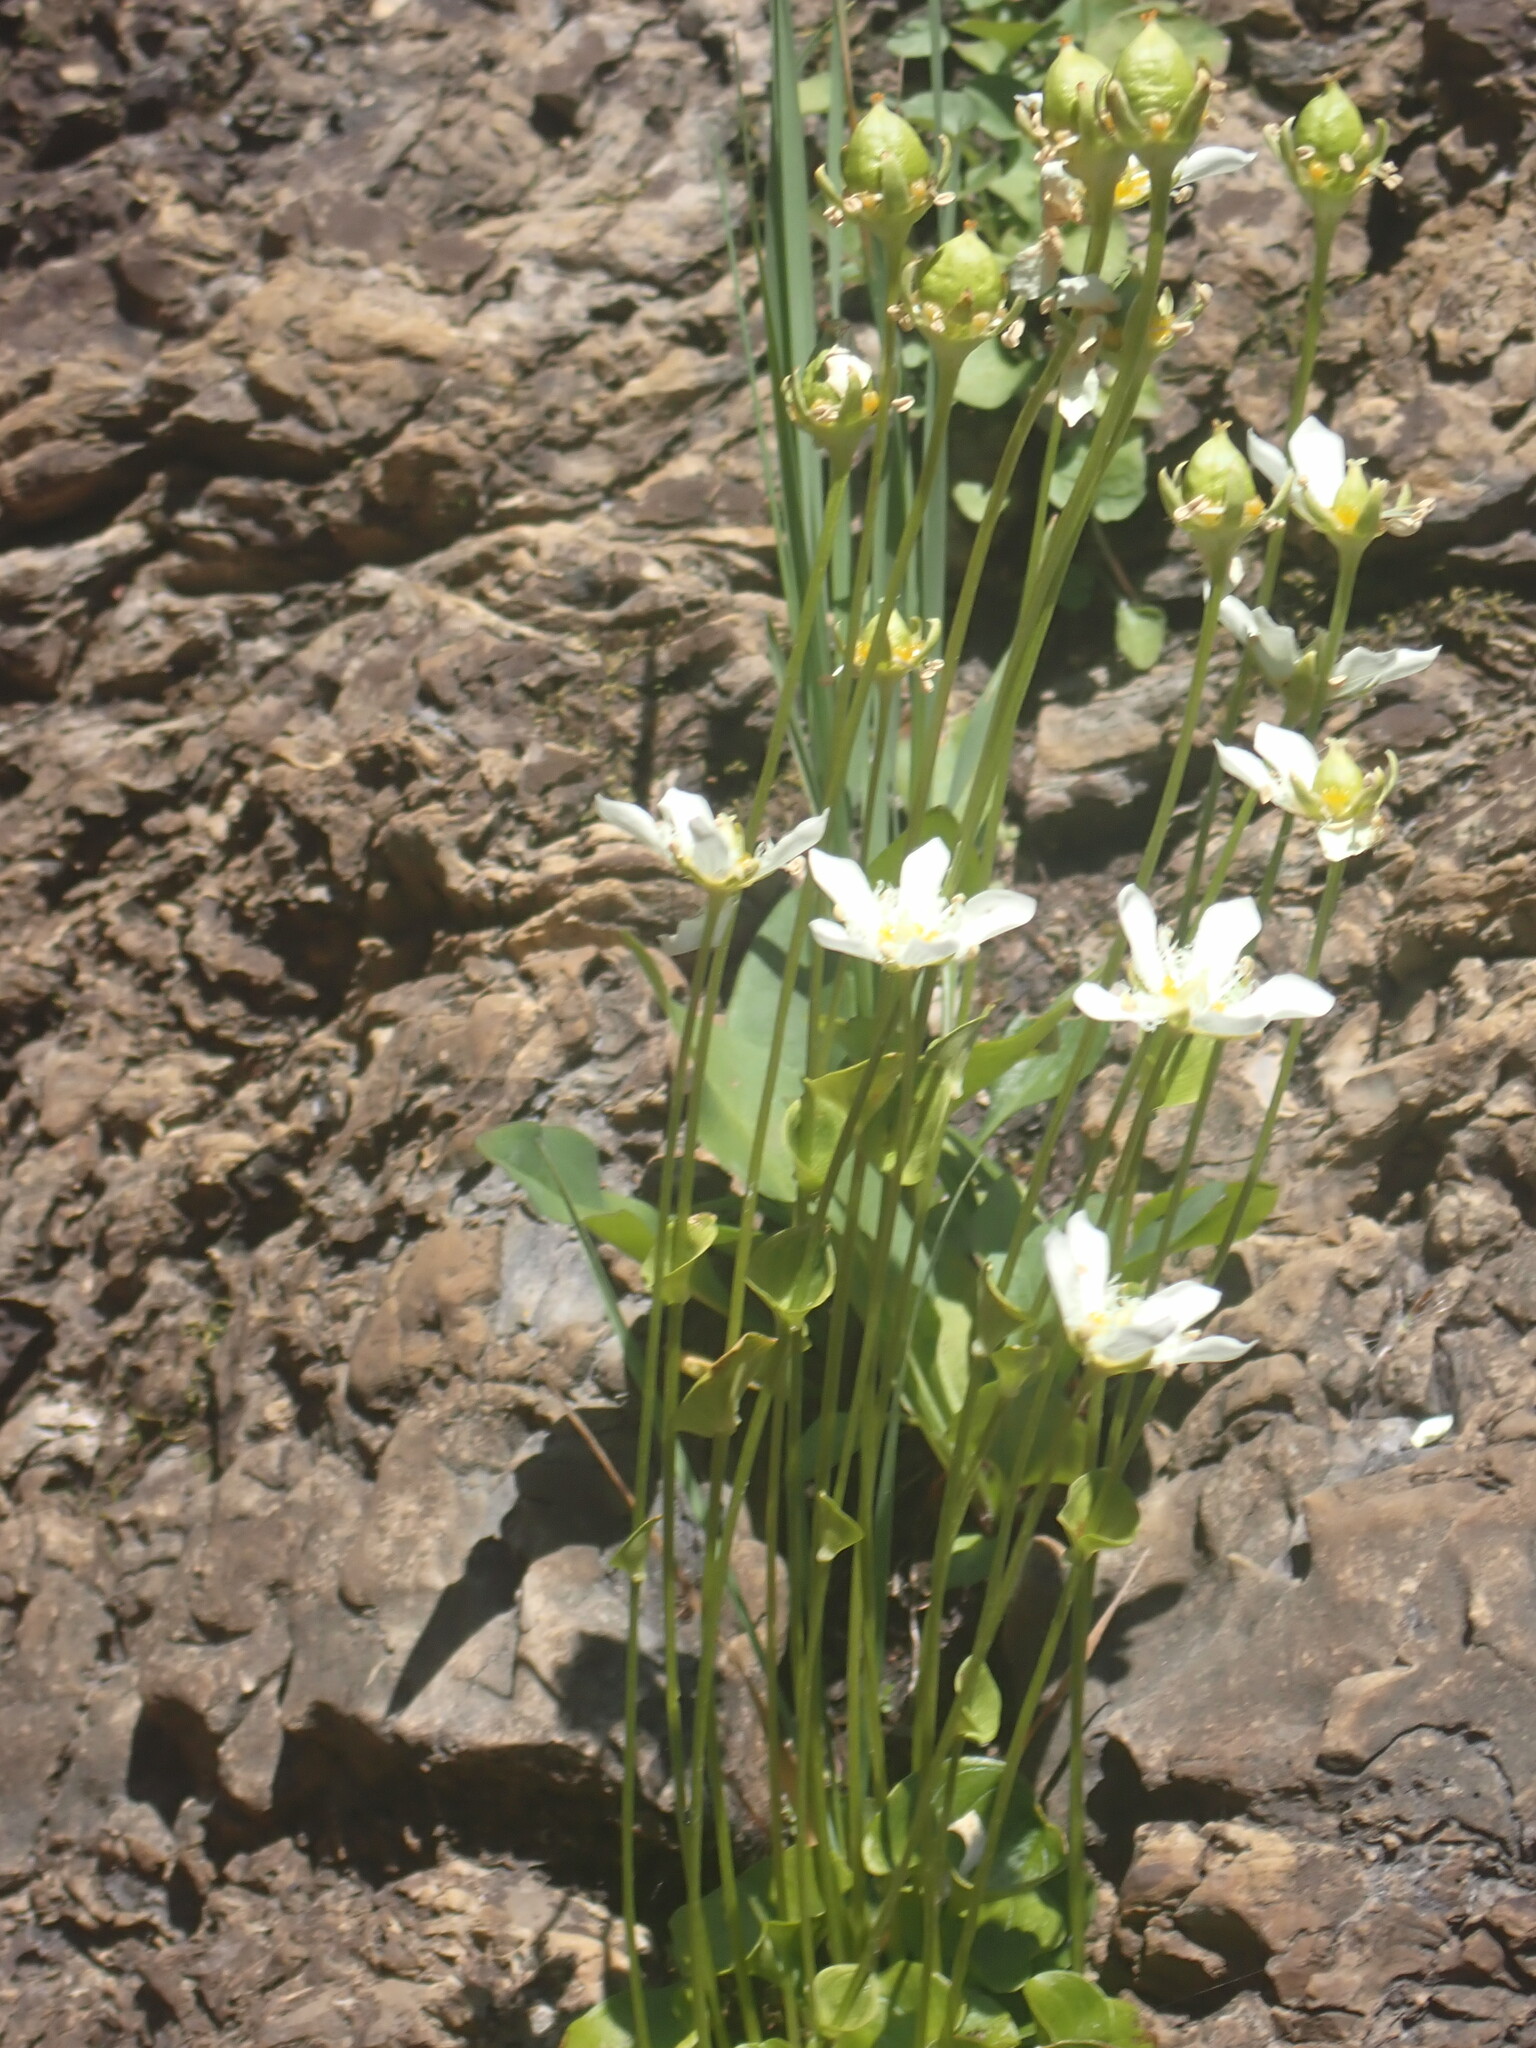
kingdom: Plantae
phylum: Tracheophyta
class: Magnoliopsida
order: Celastrales
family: Parnassiaceae
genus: Parnassia
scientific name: Parnassia fimbriata
